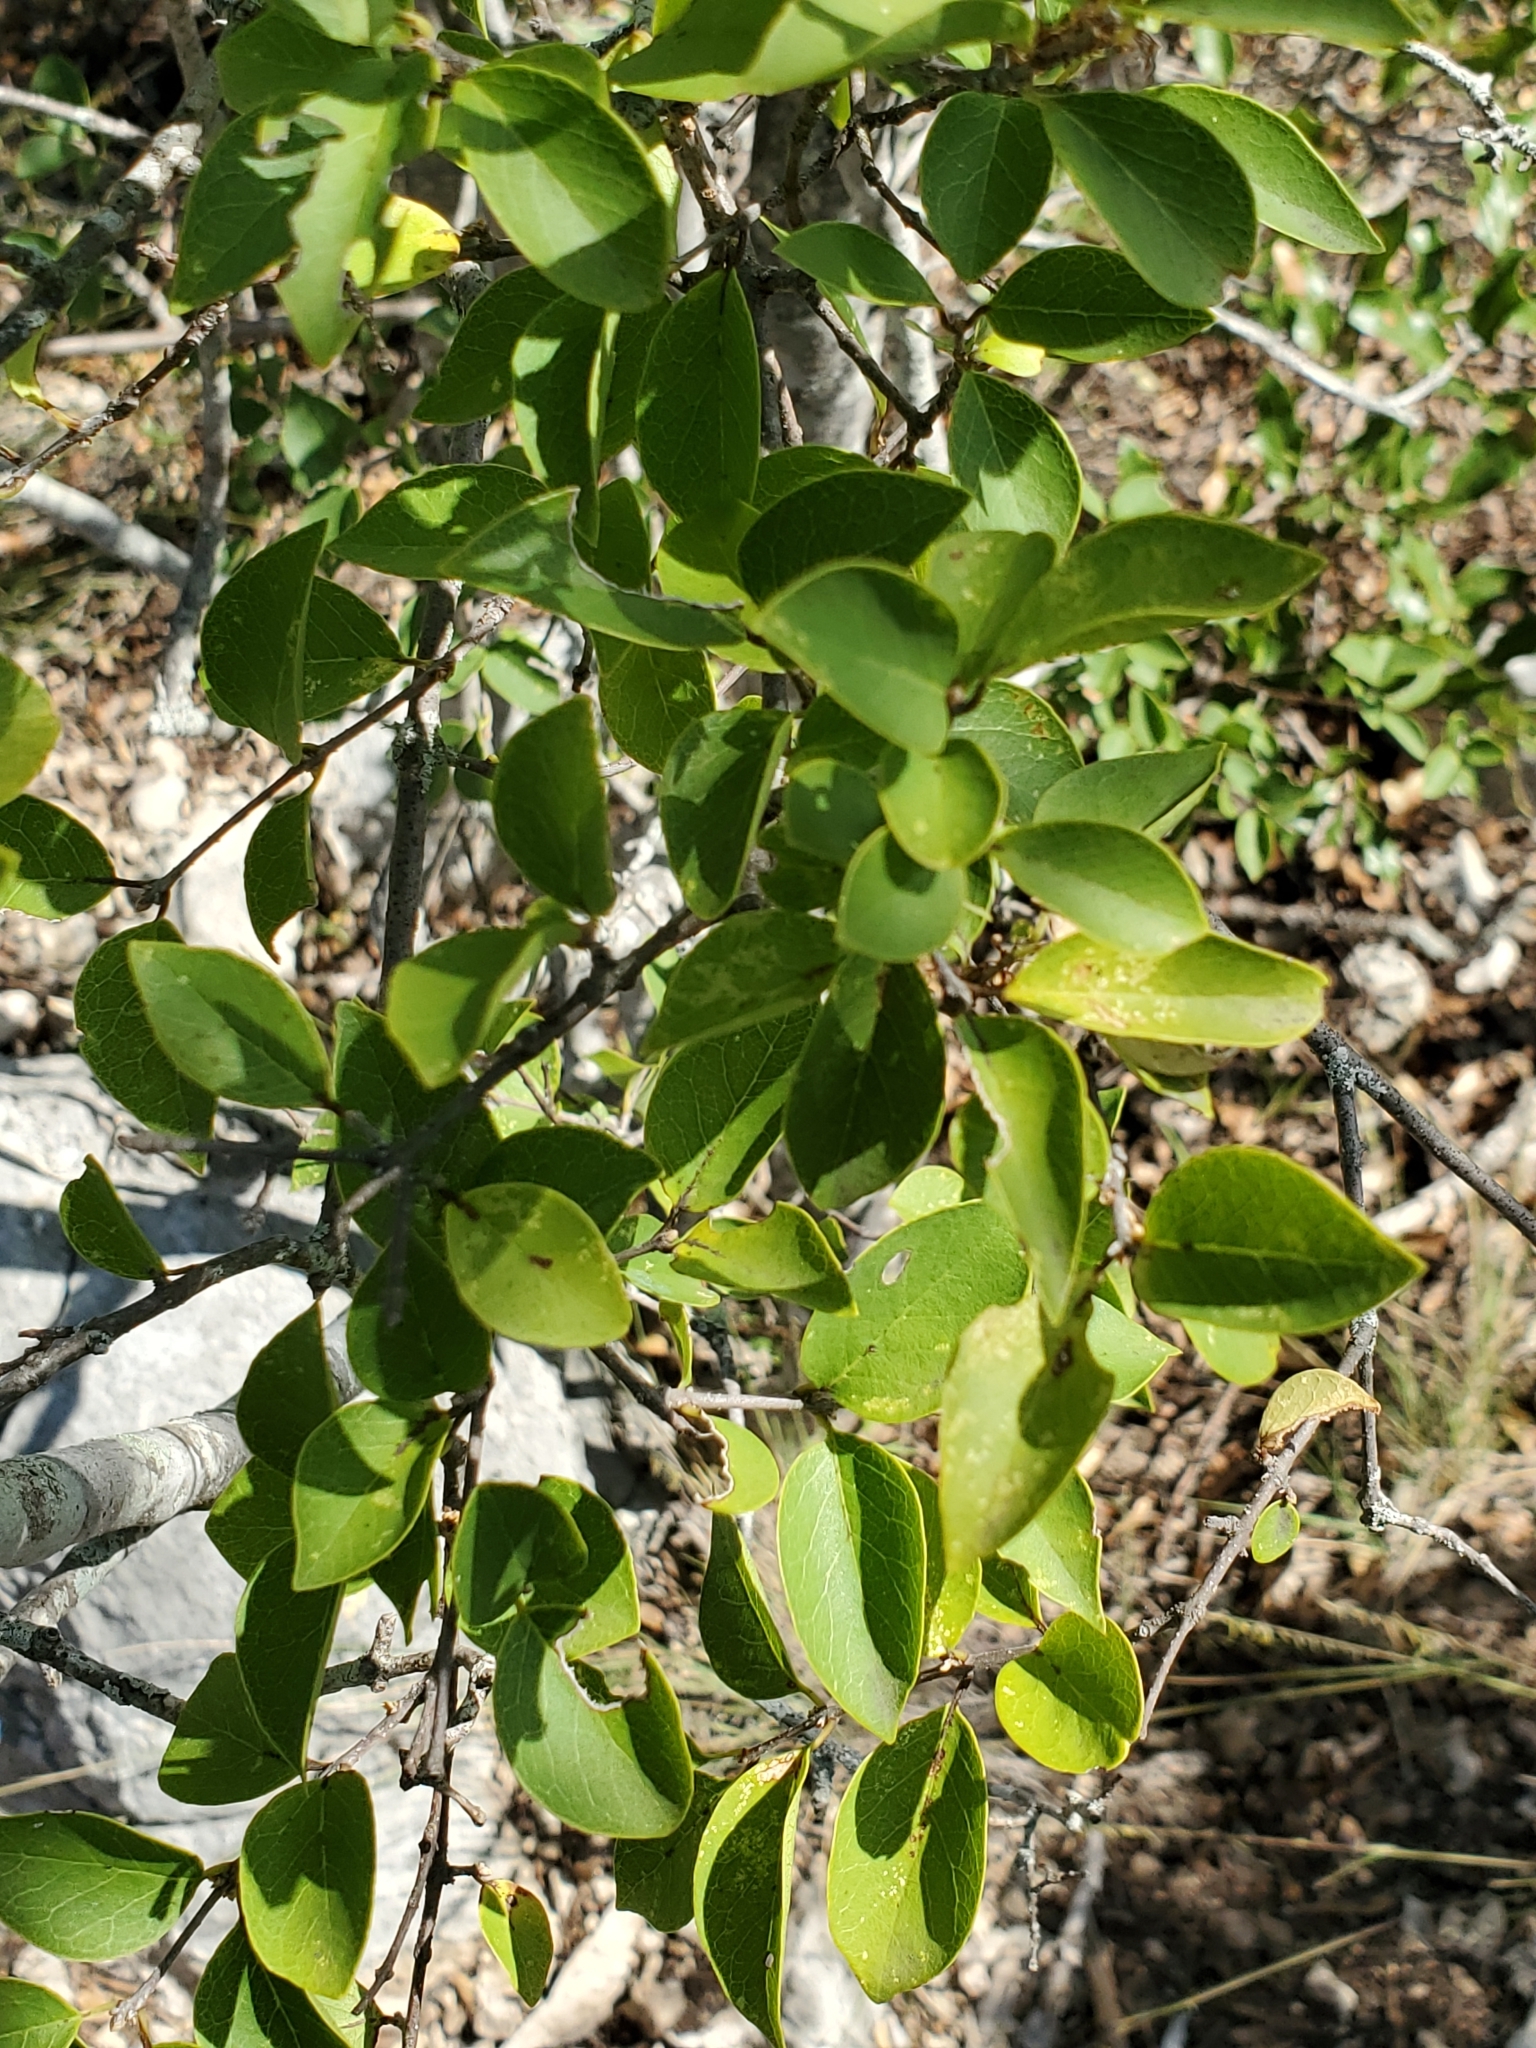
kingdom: Plantae
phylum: Tracheophyta
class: Magnoliopsida
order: Lamiales
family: Oleaceae
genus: Forestiera
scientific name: Forestiera reticulata
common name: Netleaf swamp-privet
